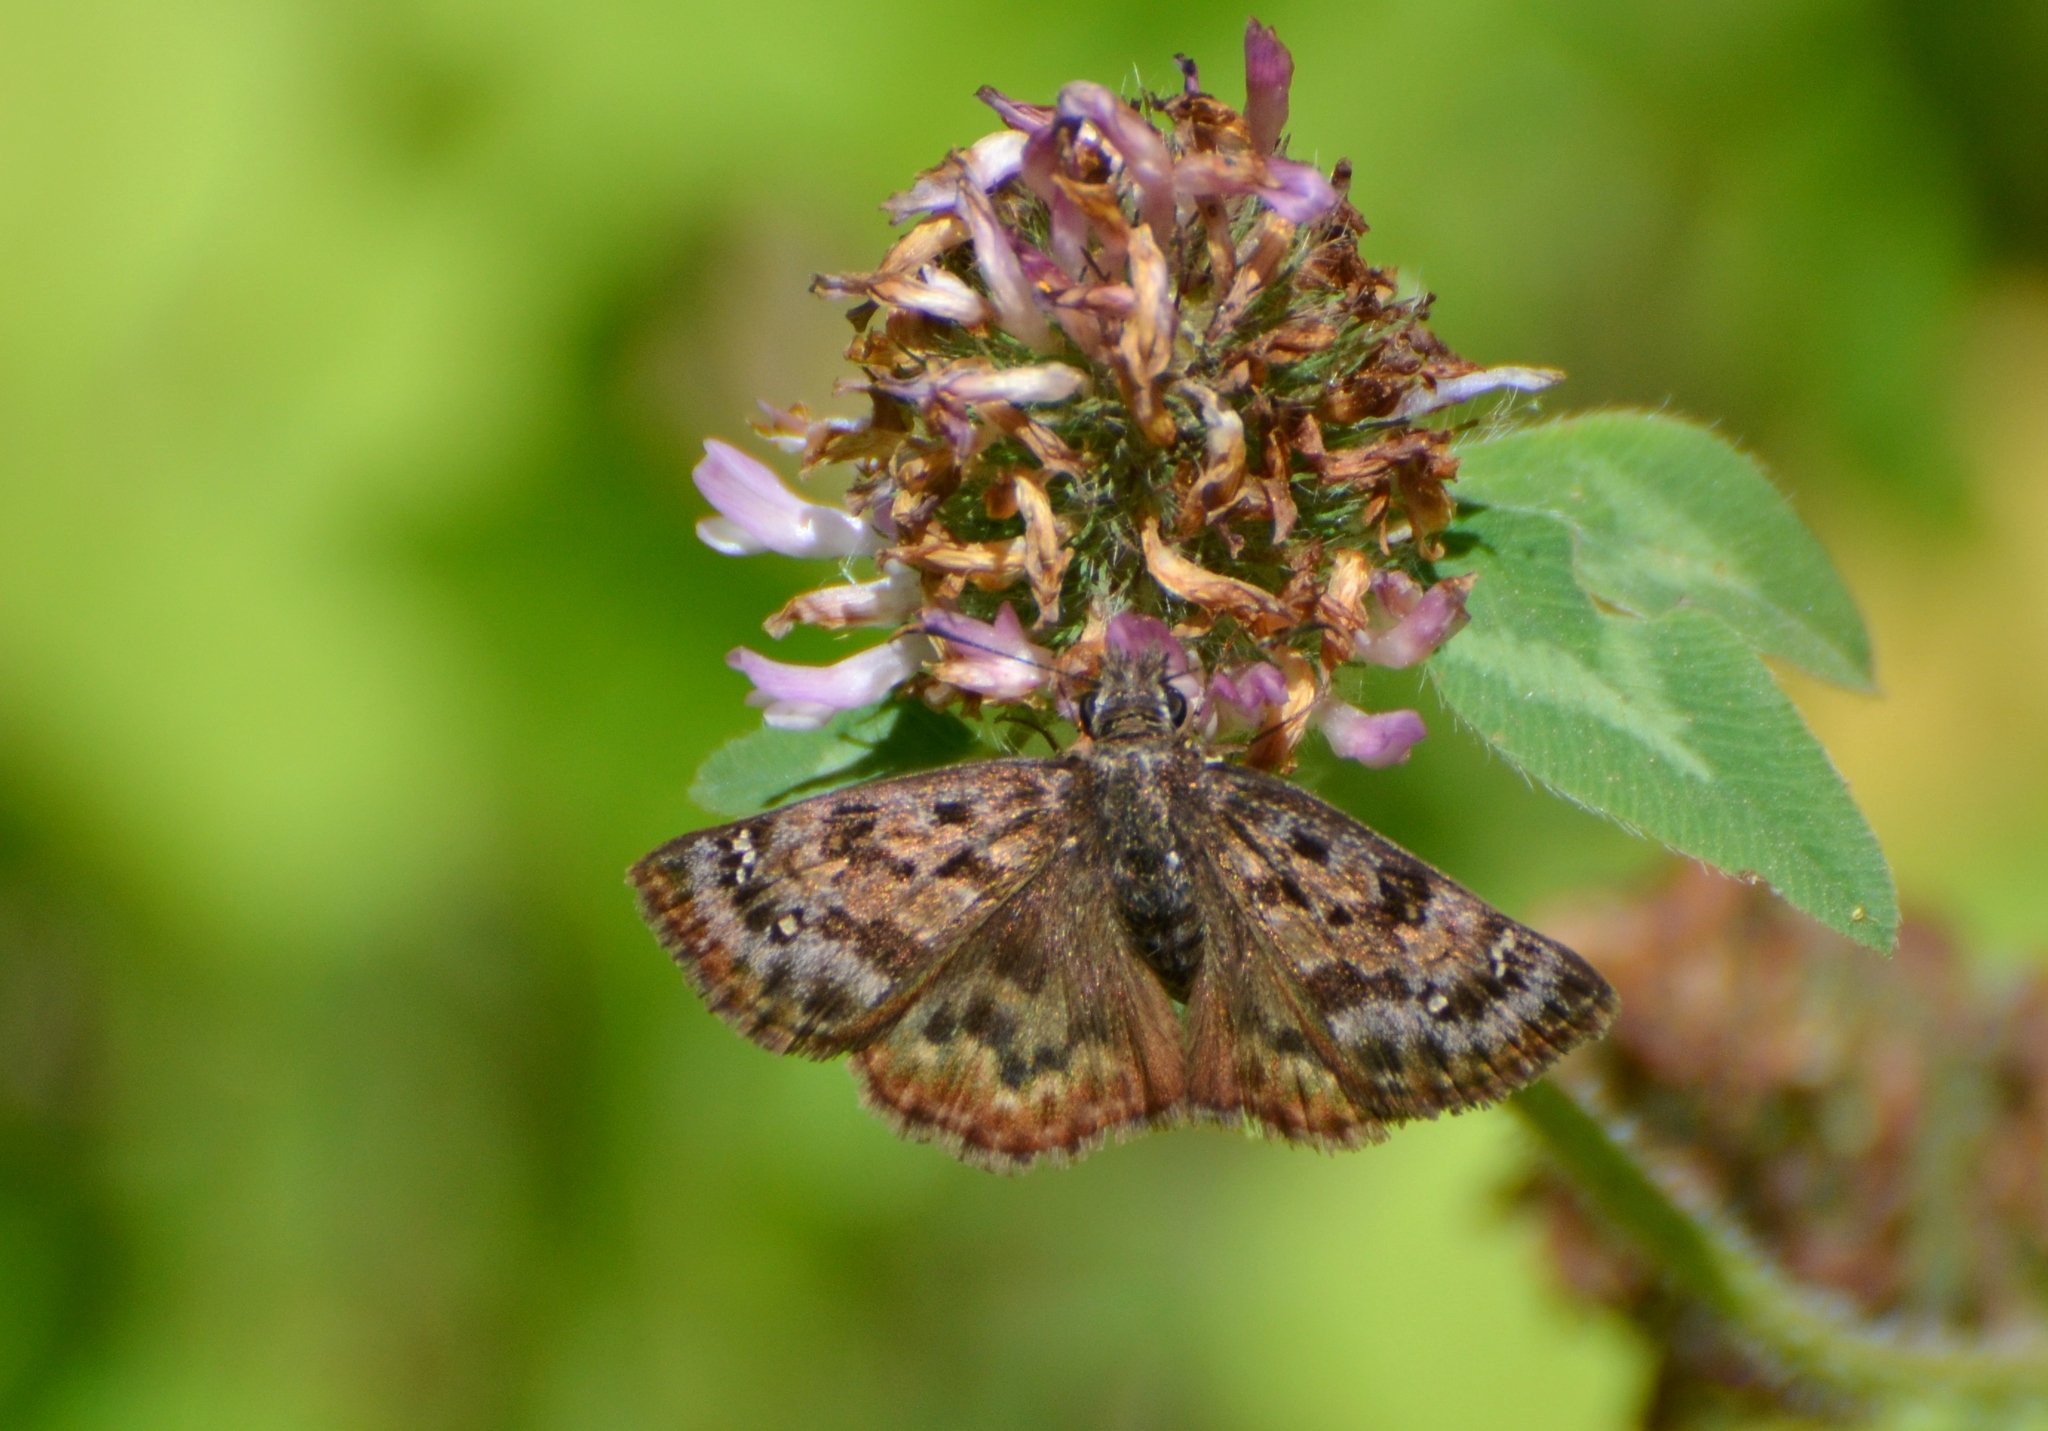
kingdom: Animalia
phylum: Arthropoda
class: Insecta
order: Lepidoptera
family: Hesperiidae
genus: Erynnis
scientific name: Erynnis martialis
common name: Mottled duskywing
